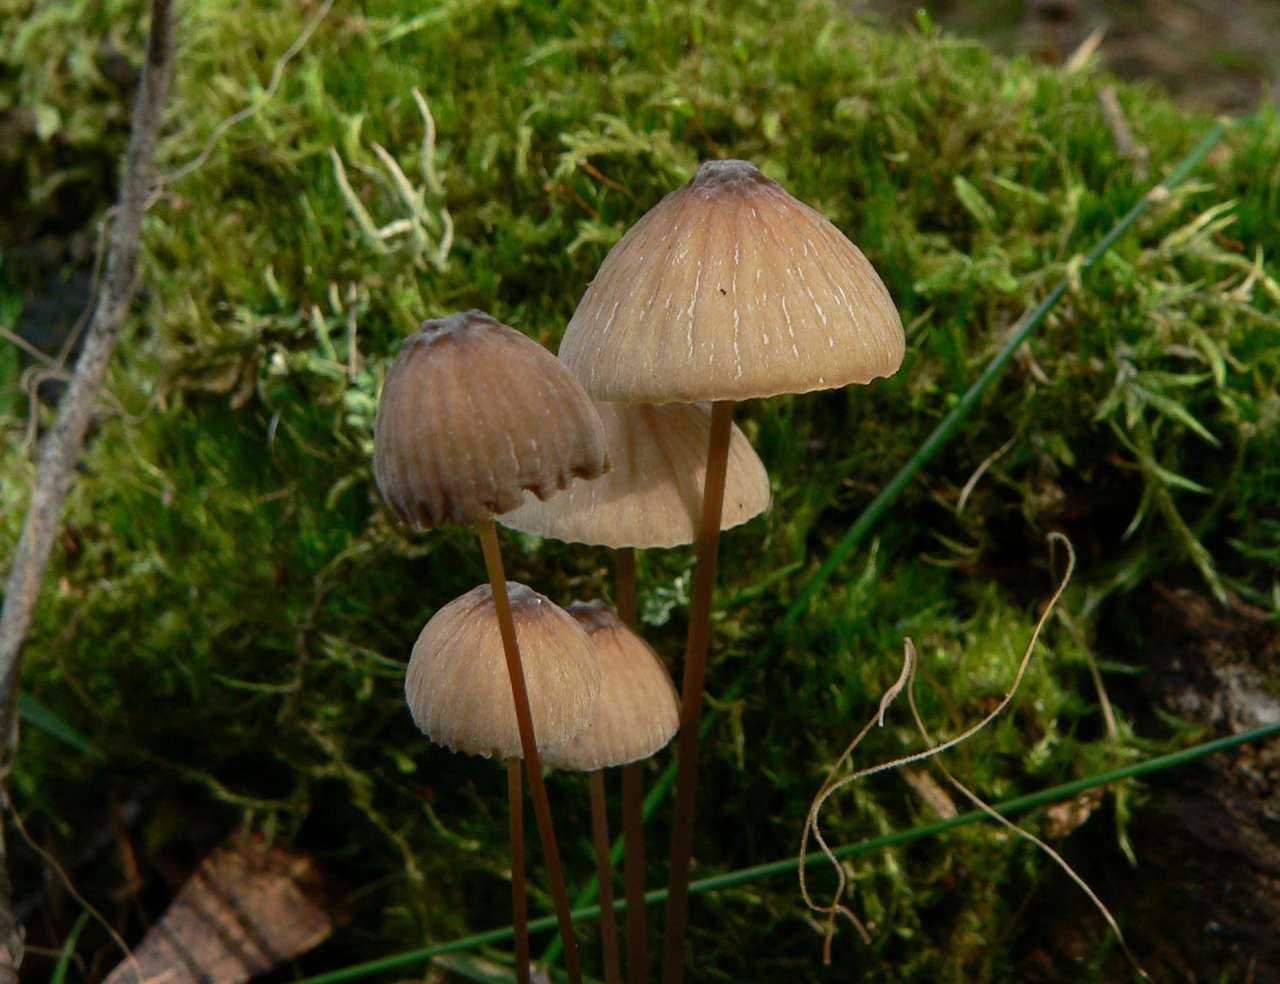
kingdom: Fungi
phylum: Basidiomycota
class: Agaricomycetes
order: Agaricales
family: Mycenaceae
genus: Mycena
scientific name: Mycena cystidiosa
